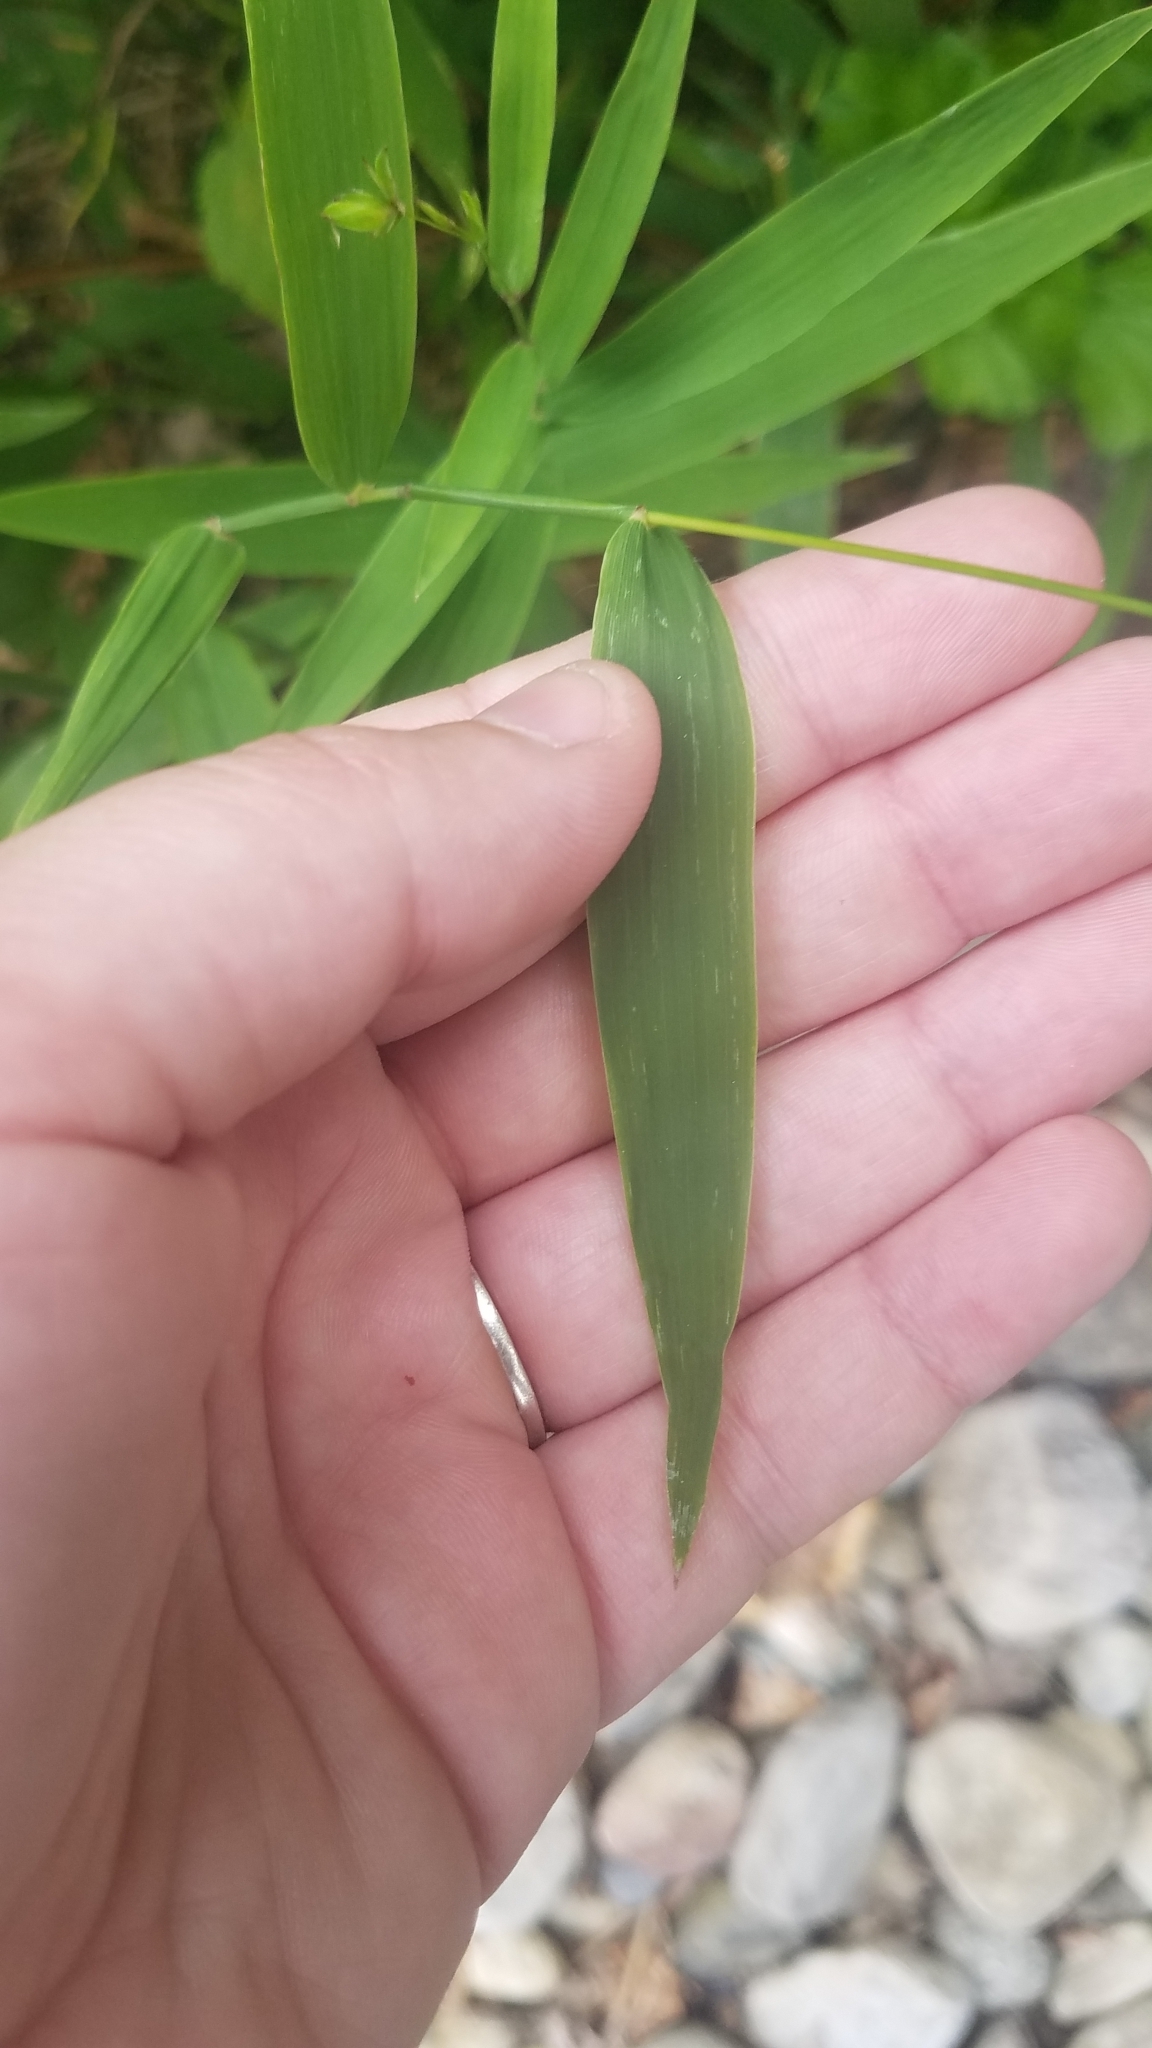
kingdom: Plantae
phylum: Tracheophyta
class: Liliopsida
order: Poales
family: Poaceae
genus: Chasmanthium
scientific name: Chasmanthium latifolium
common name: Broad-leaved chasmanthium
